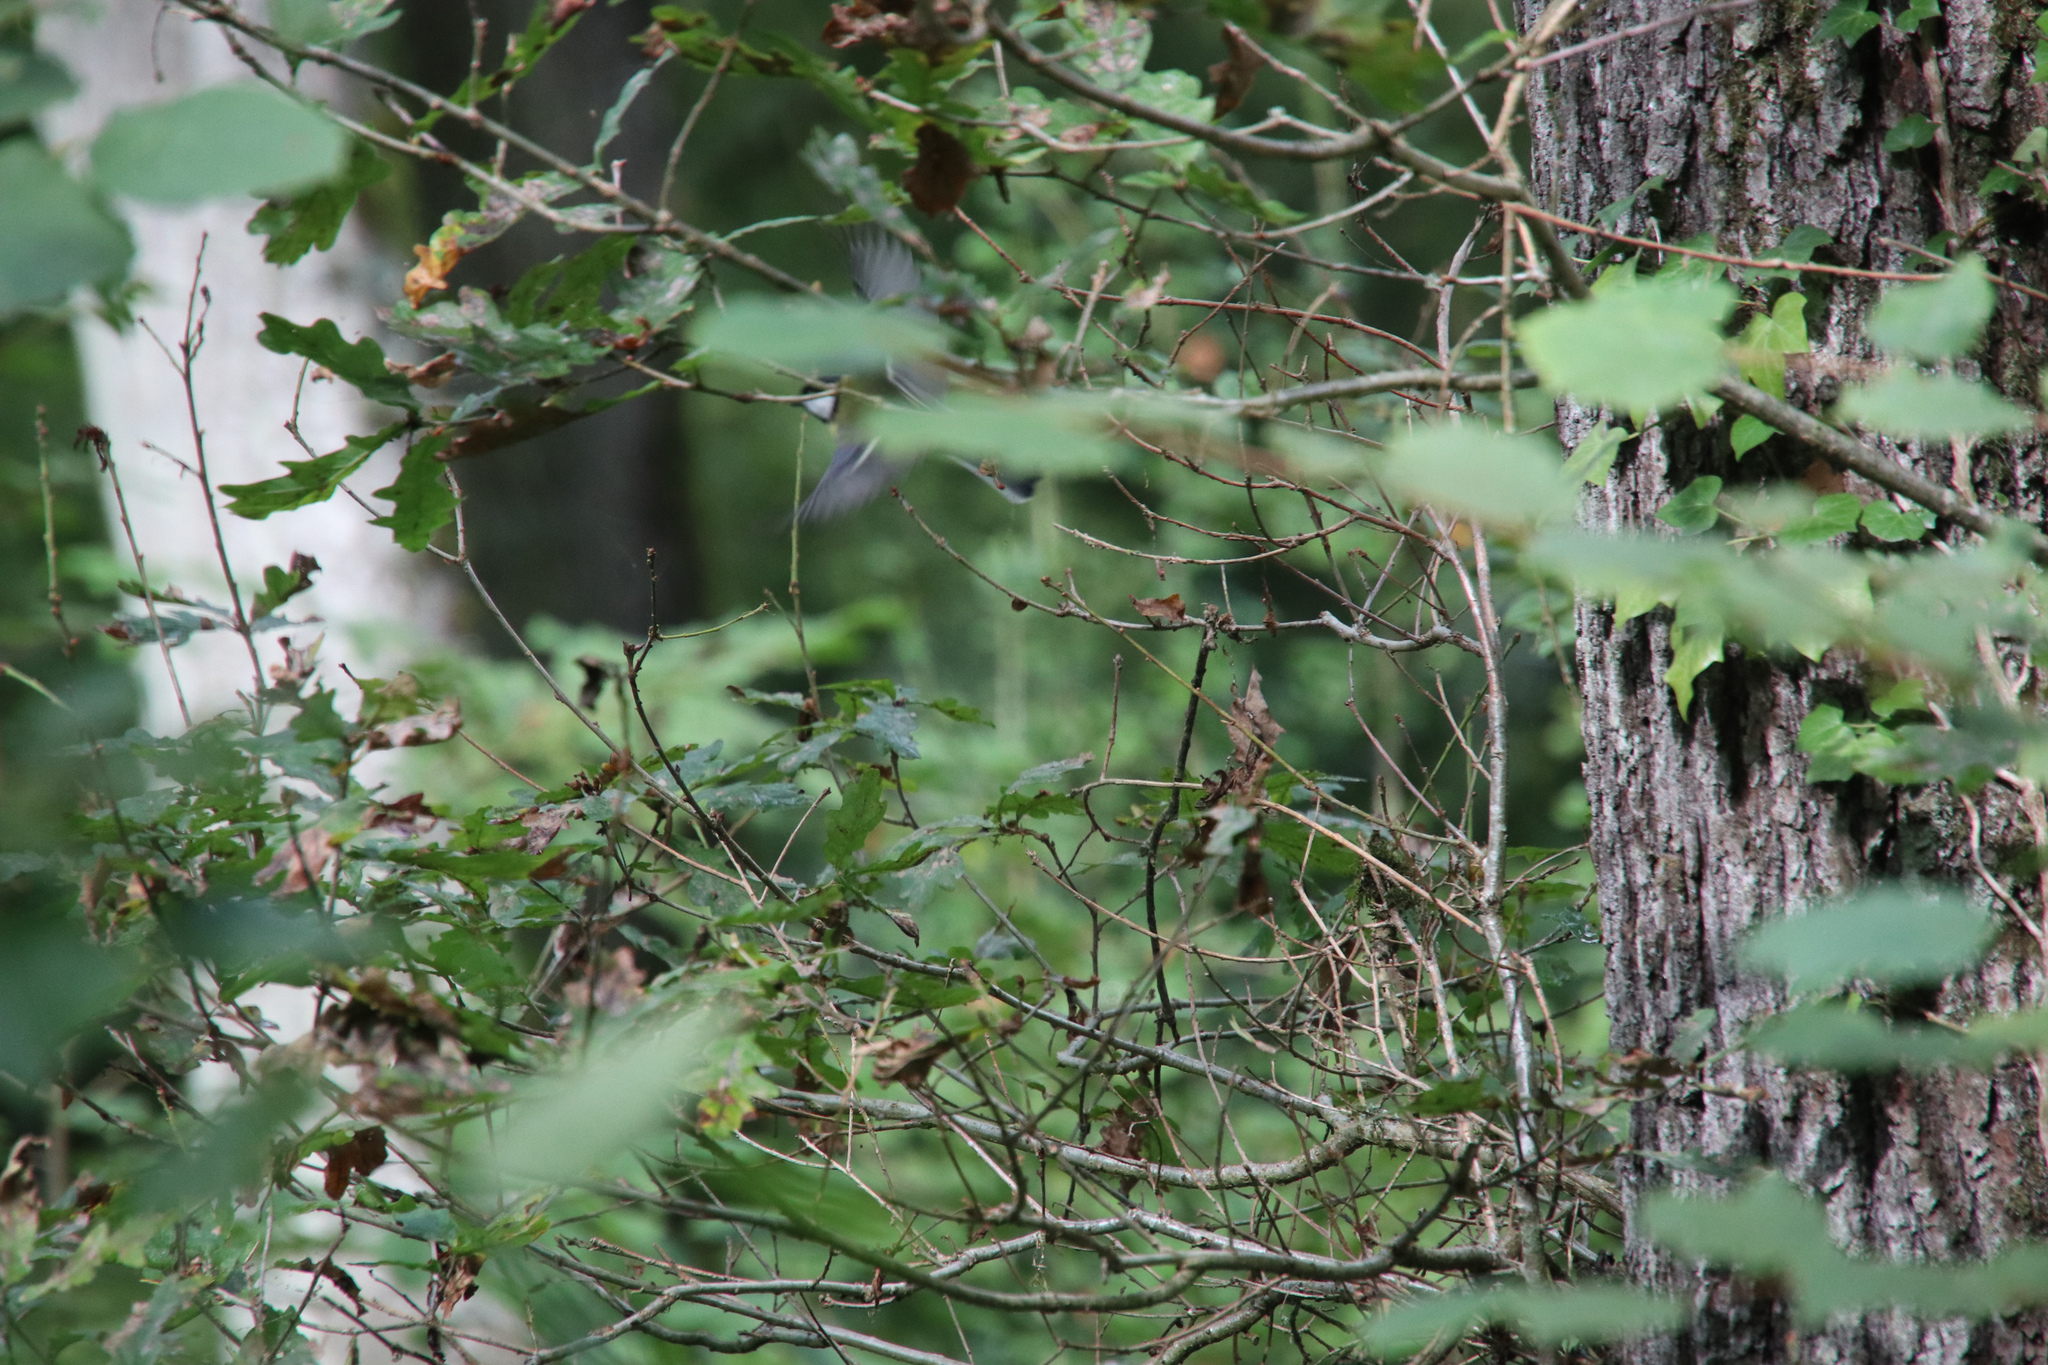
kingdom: Animalia
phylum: Chordata
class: Aves
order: Passeriformes
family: Paridae
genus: Parus
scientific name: Parus major
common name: Great tit
